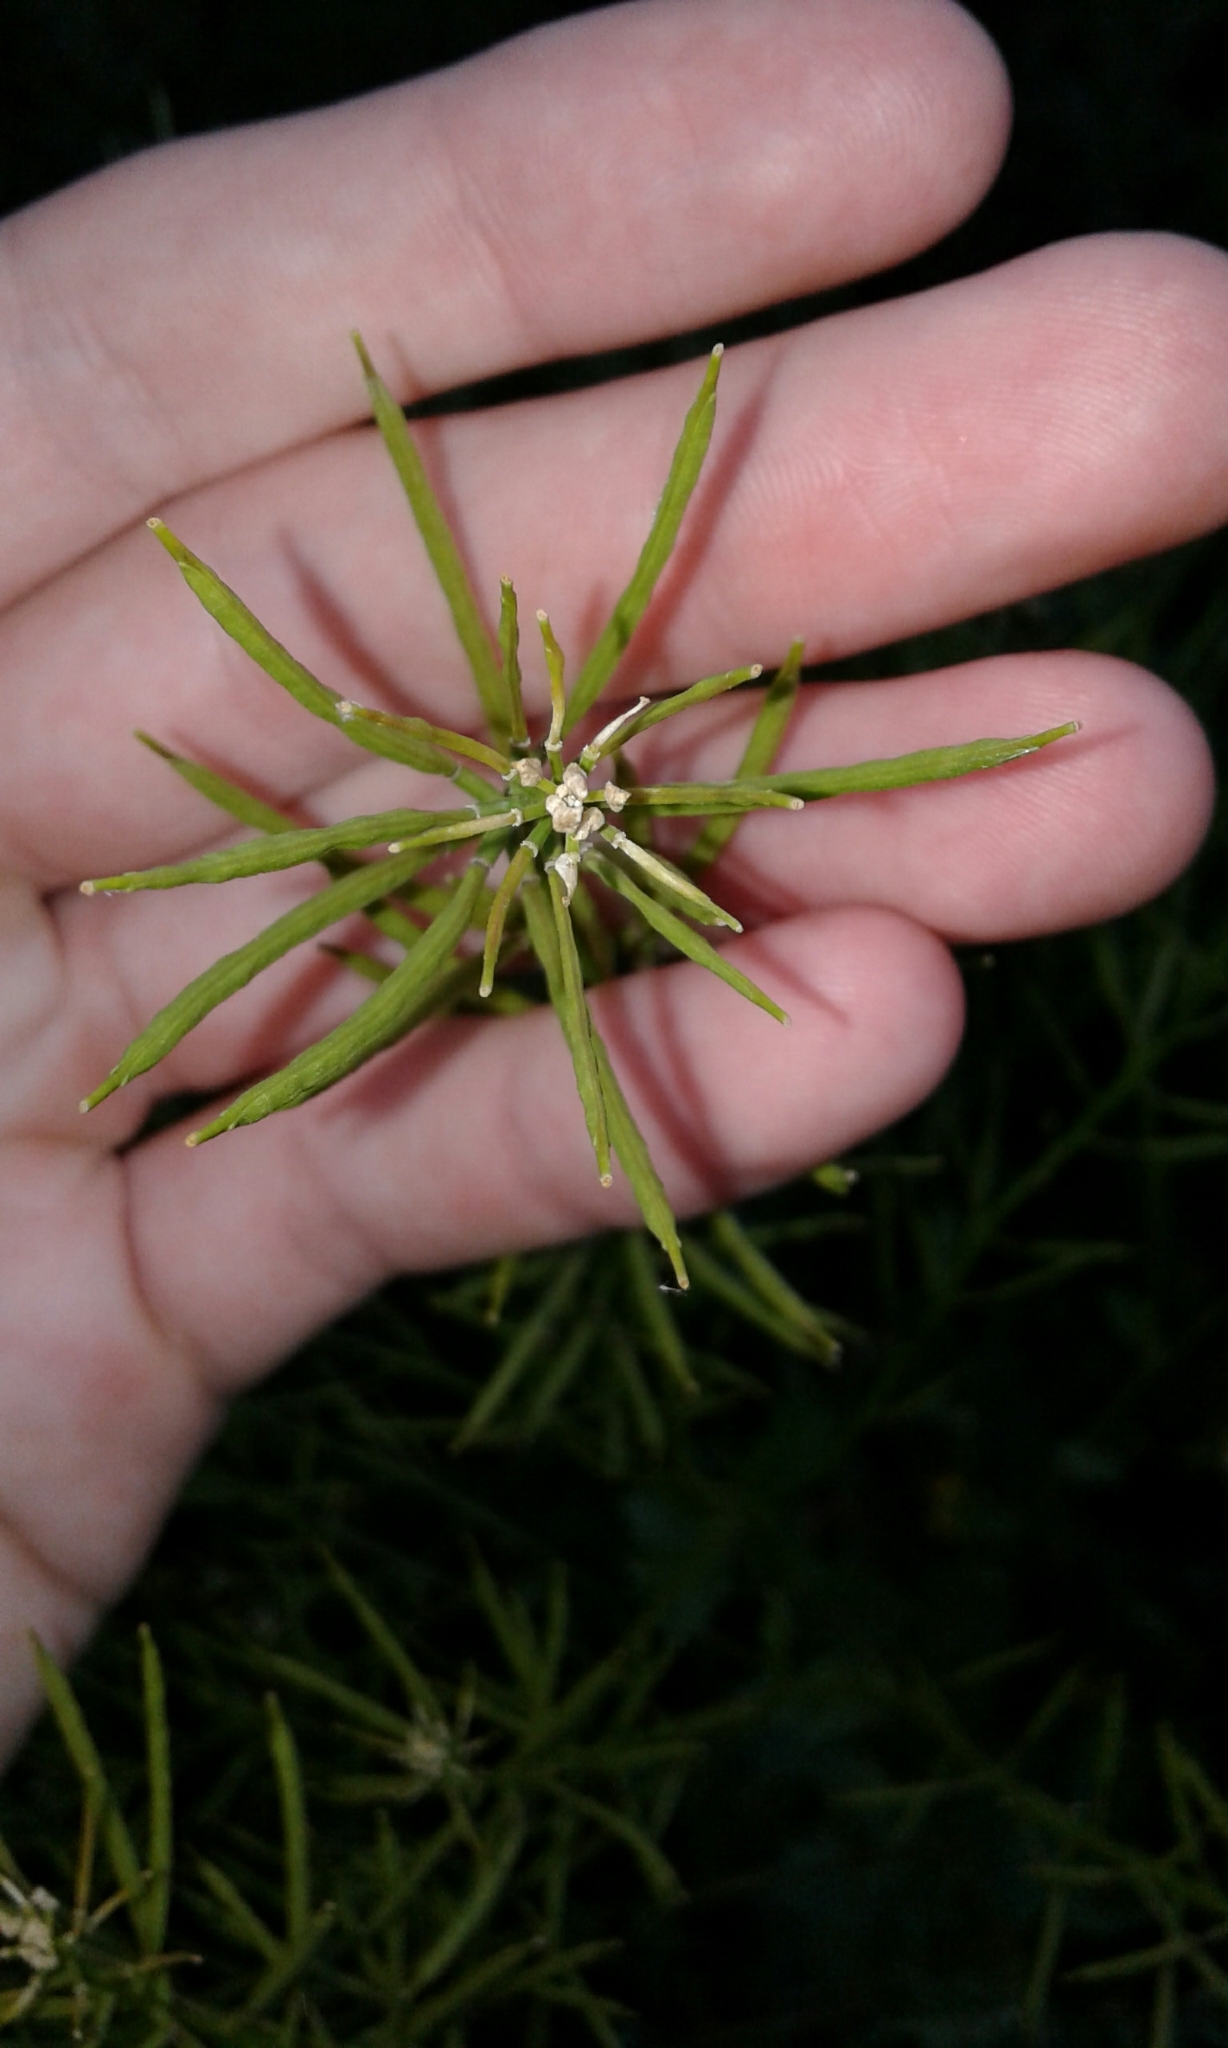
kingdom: Plantae
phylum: Tracheophyta
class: Magnoliopsida
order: Brassicales
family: Brassicaceae
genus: Barbarea
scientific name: Barbarea vulgaris
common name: Cressy-greens
